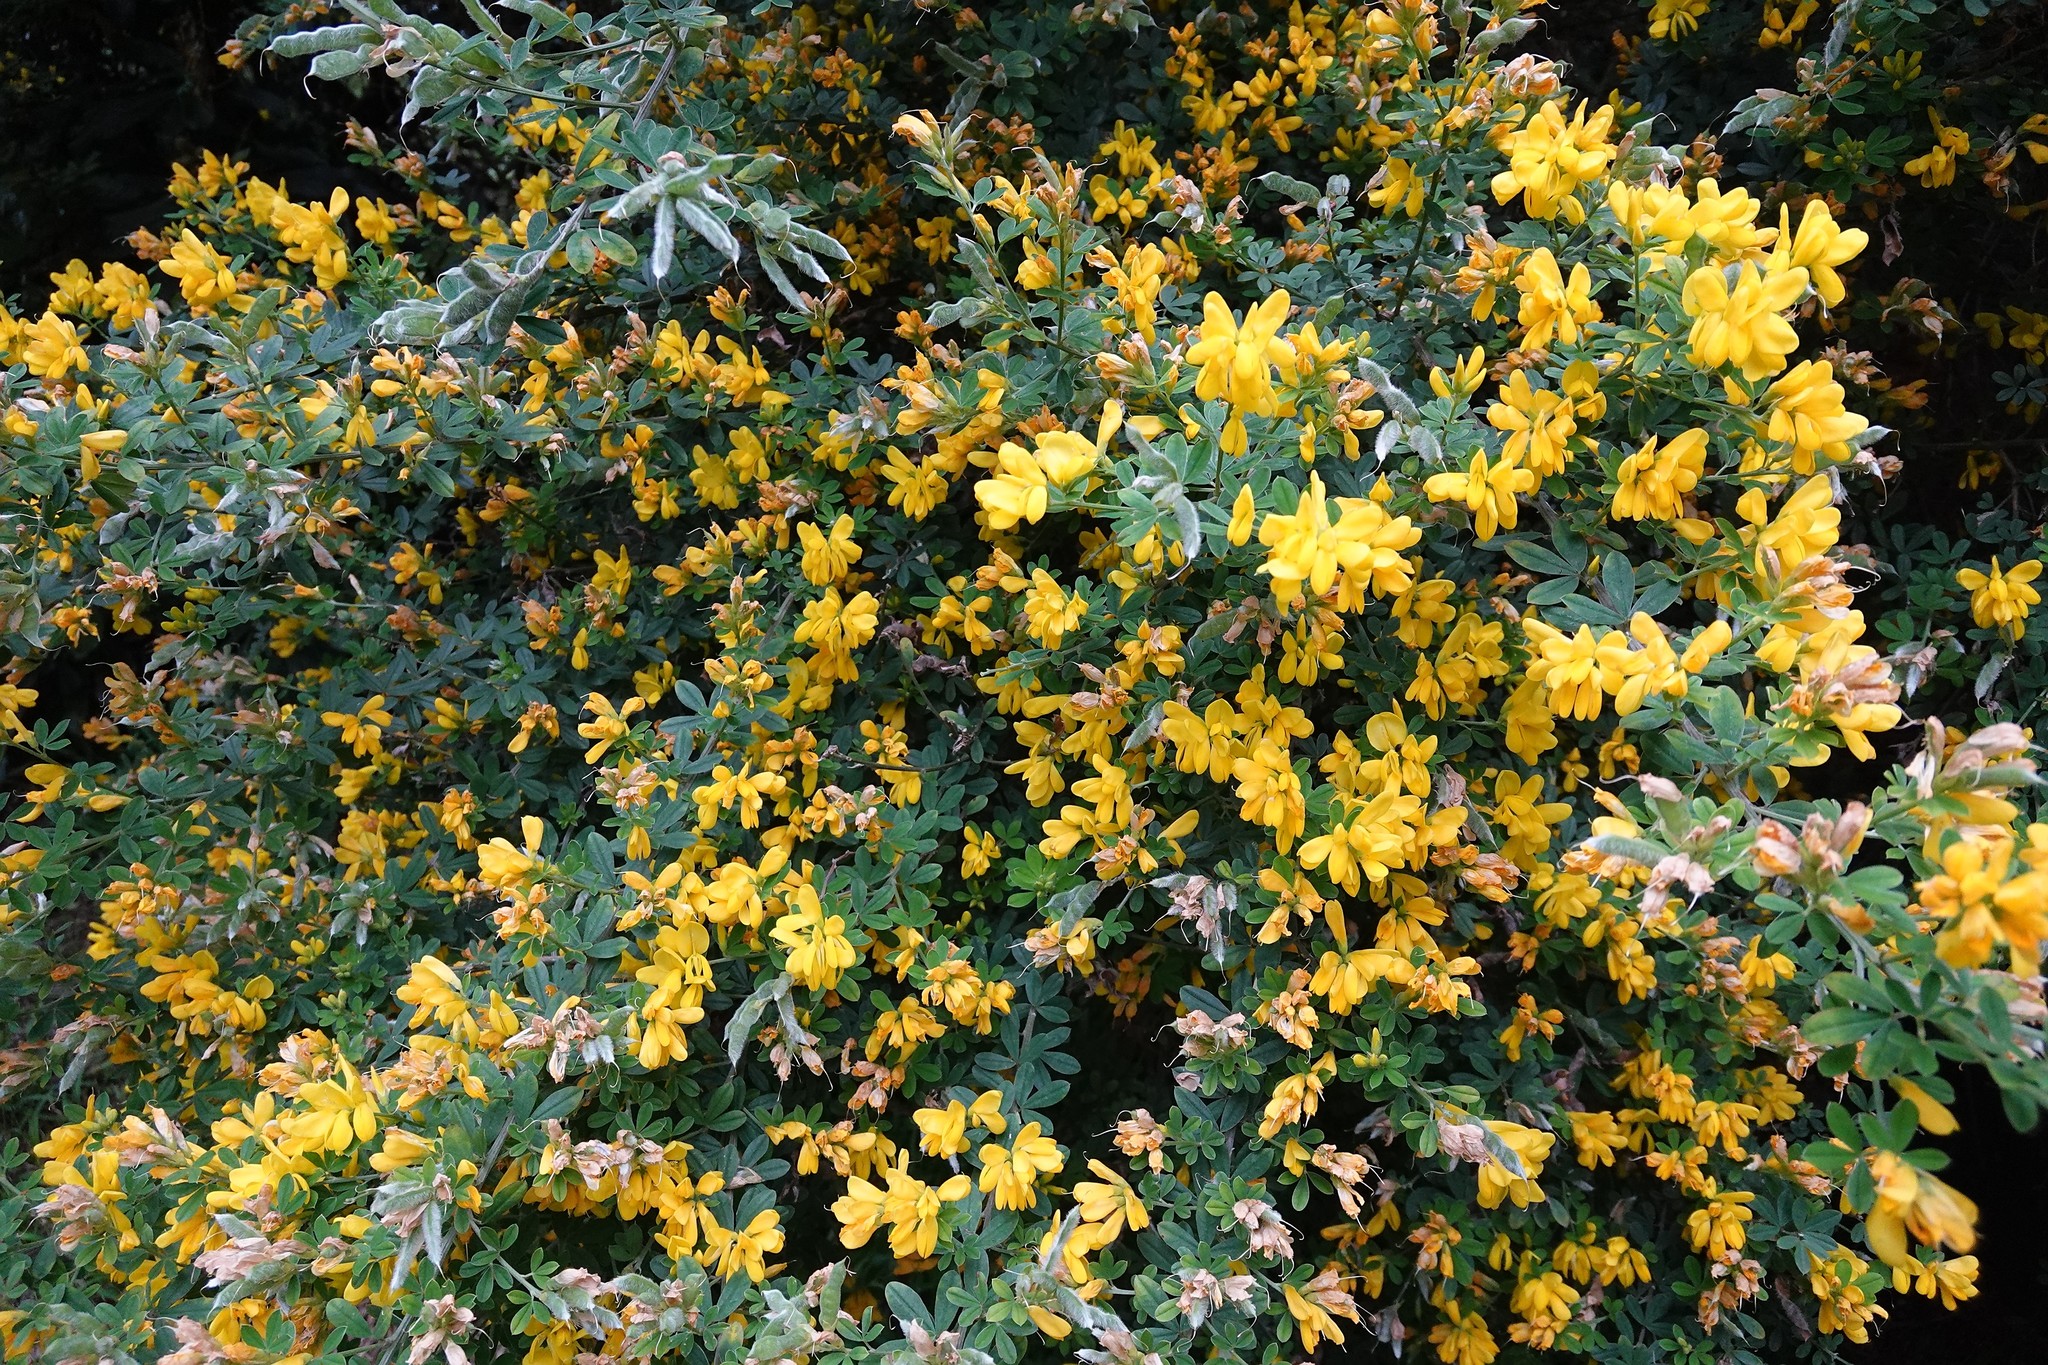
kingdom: Plantae
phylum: Tracheophyta
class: Magnoliopsida
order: Fabales
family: Fabaceae
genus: Genista
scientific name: Genista monspessulana
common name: Montpellier broom
